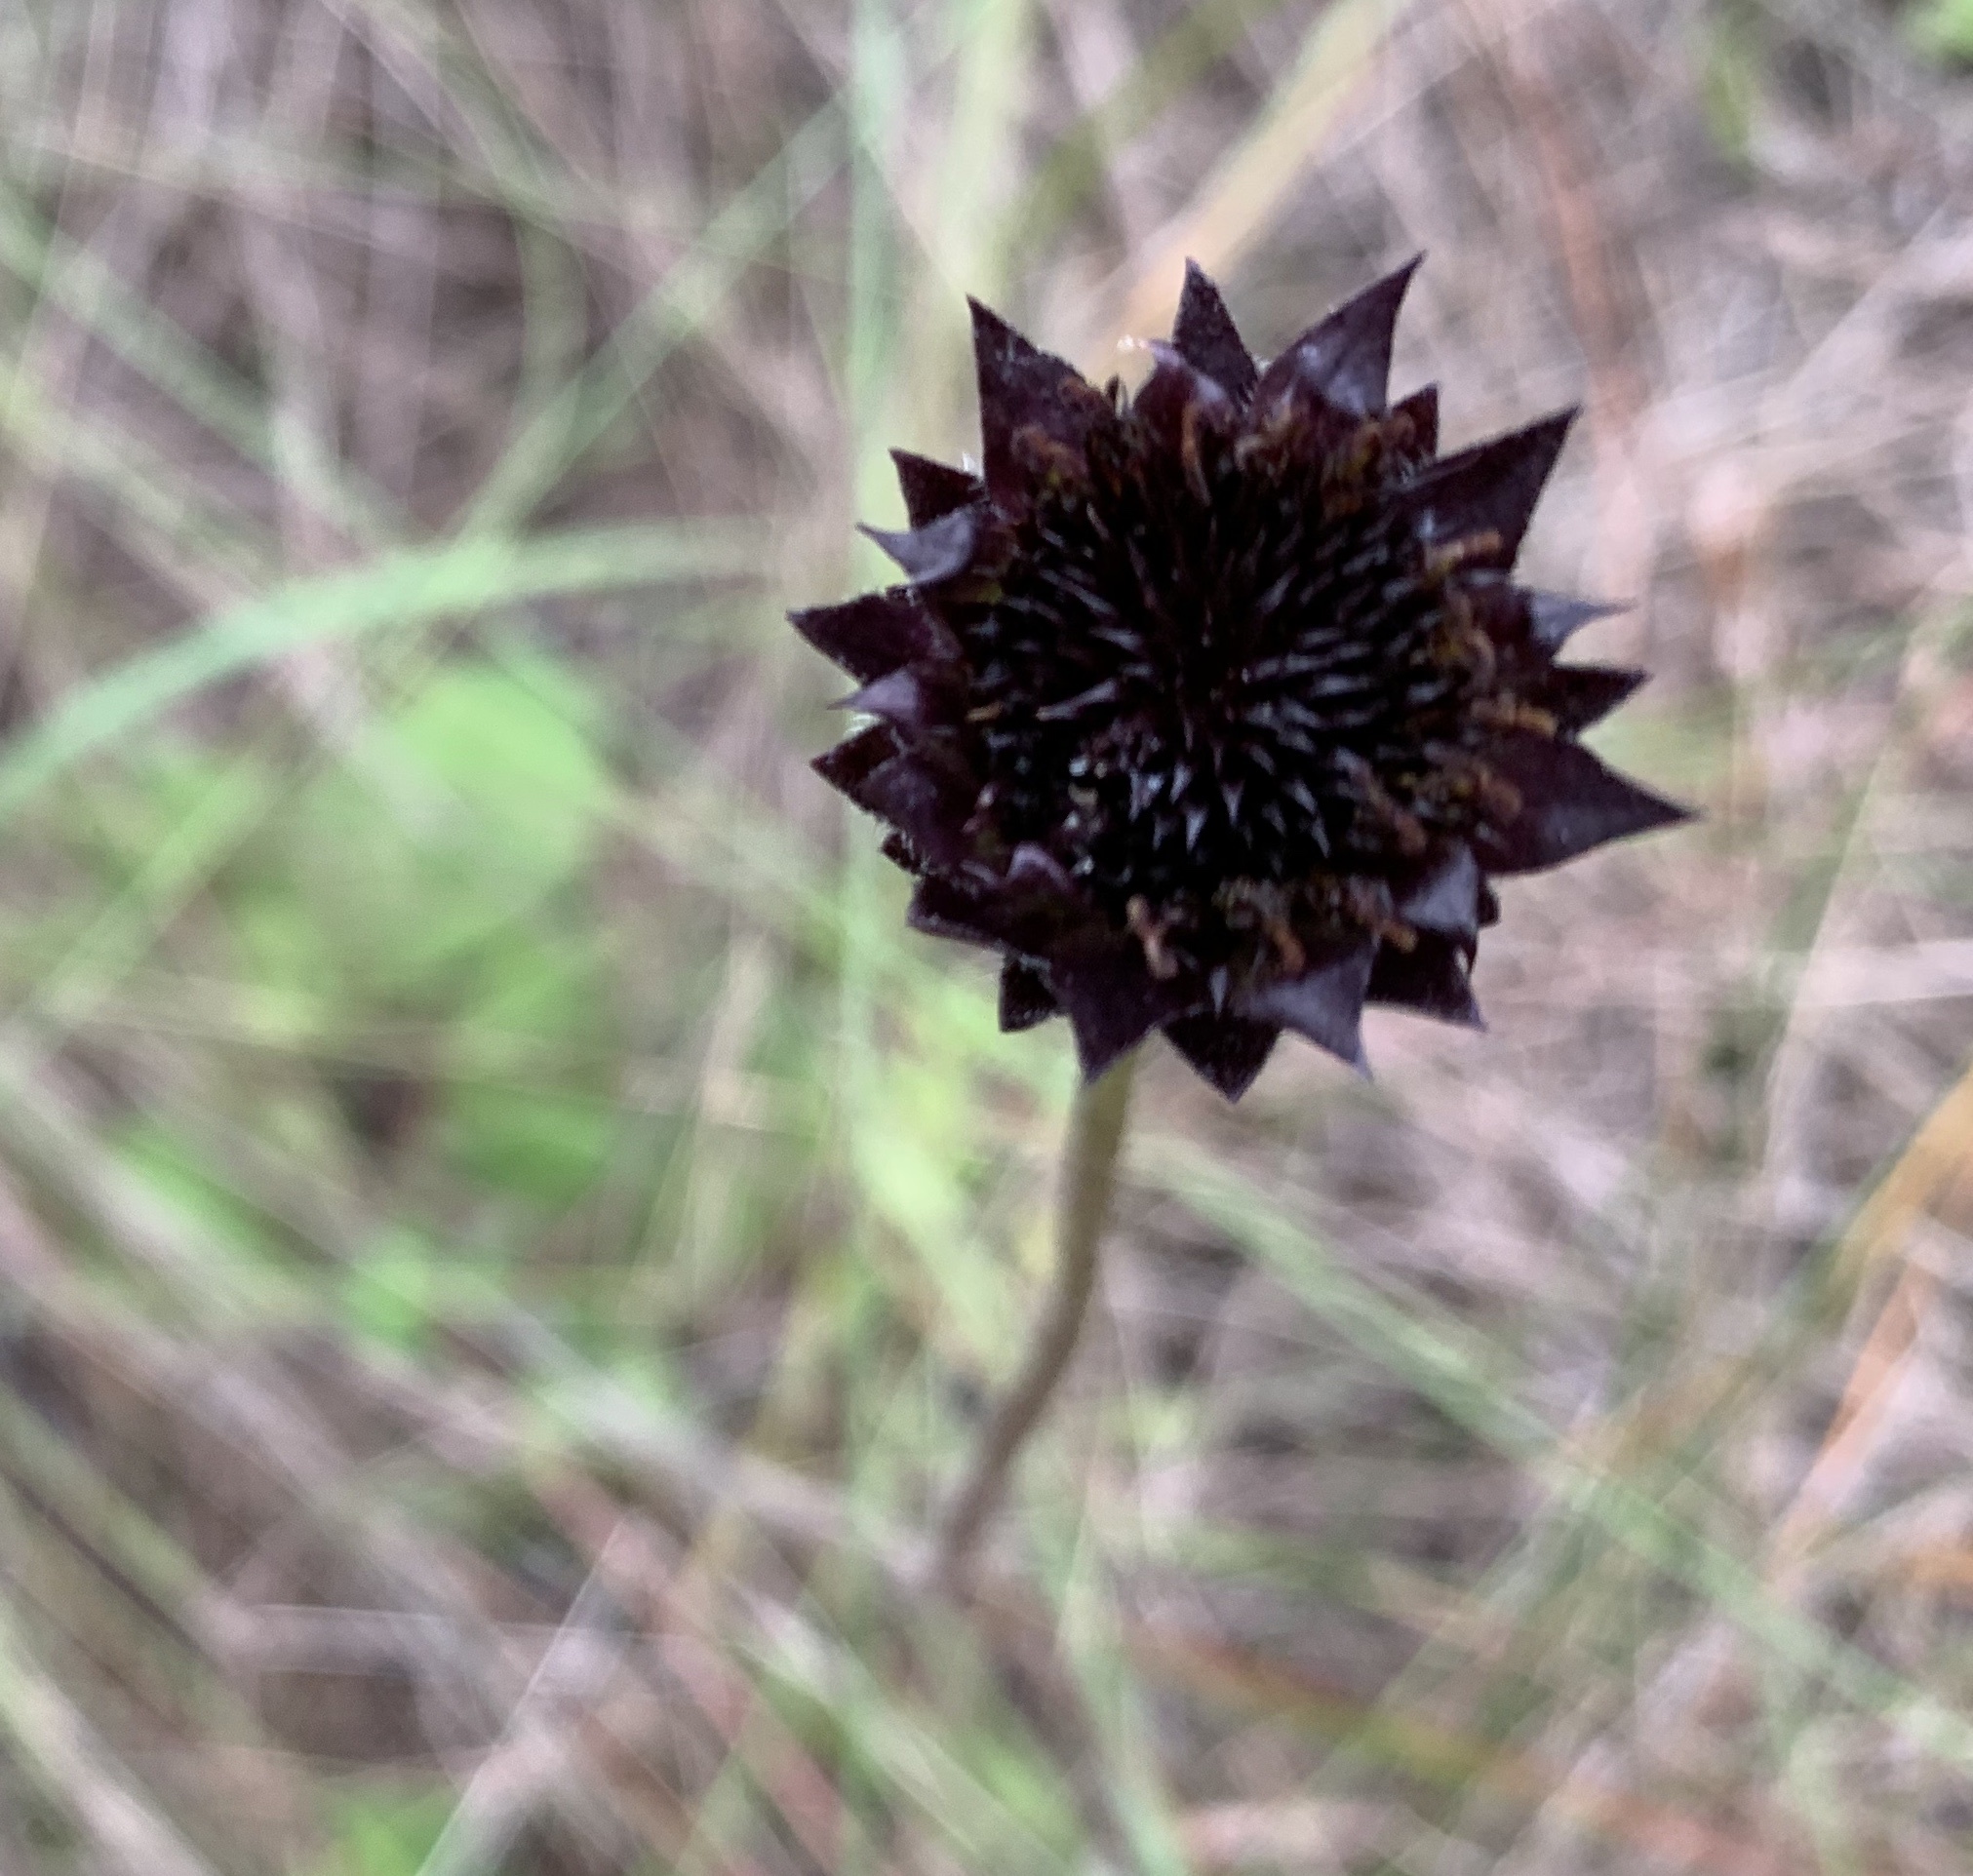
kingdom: Plantae
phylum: Tracheophyta
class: Magnoliopsida
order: Asterales
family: Asteraceae
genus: Helianthus
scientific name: Helianthus radula
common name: Pineland sunflower
